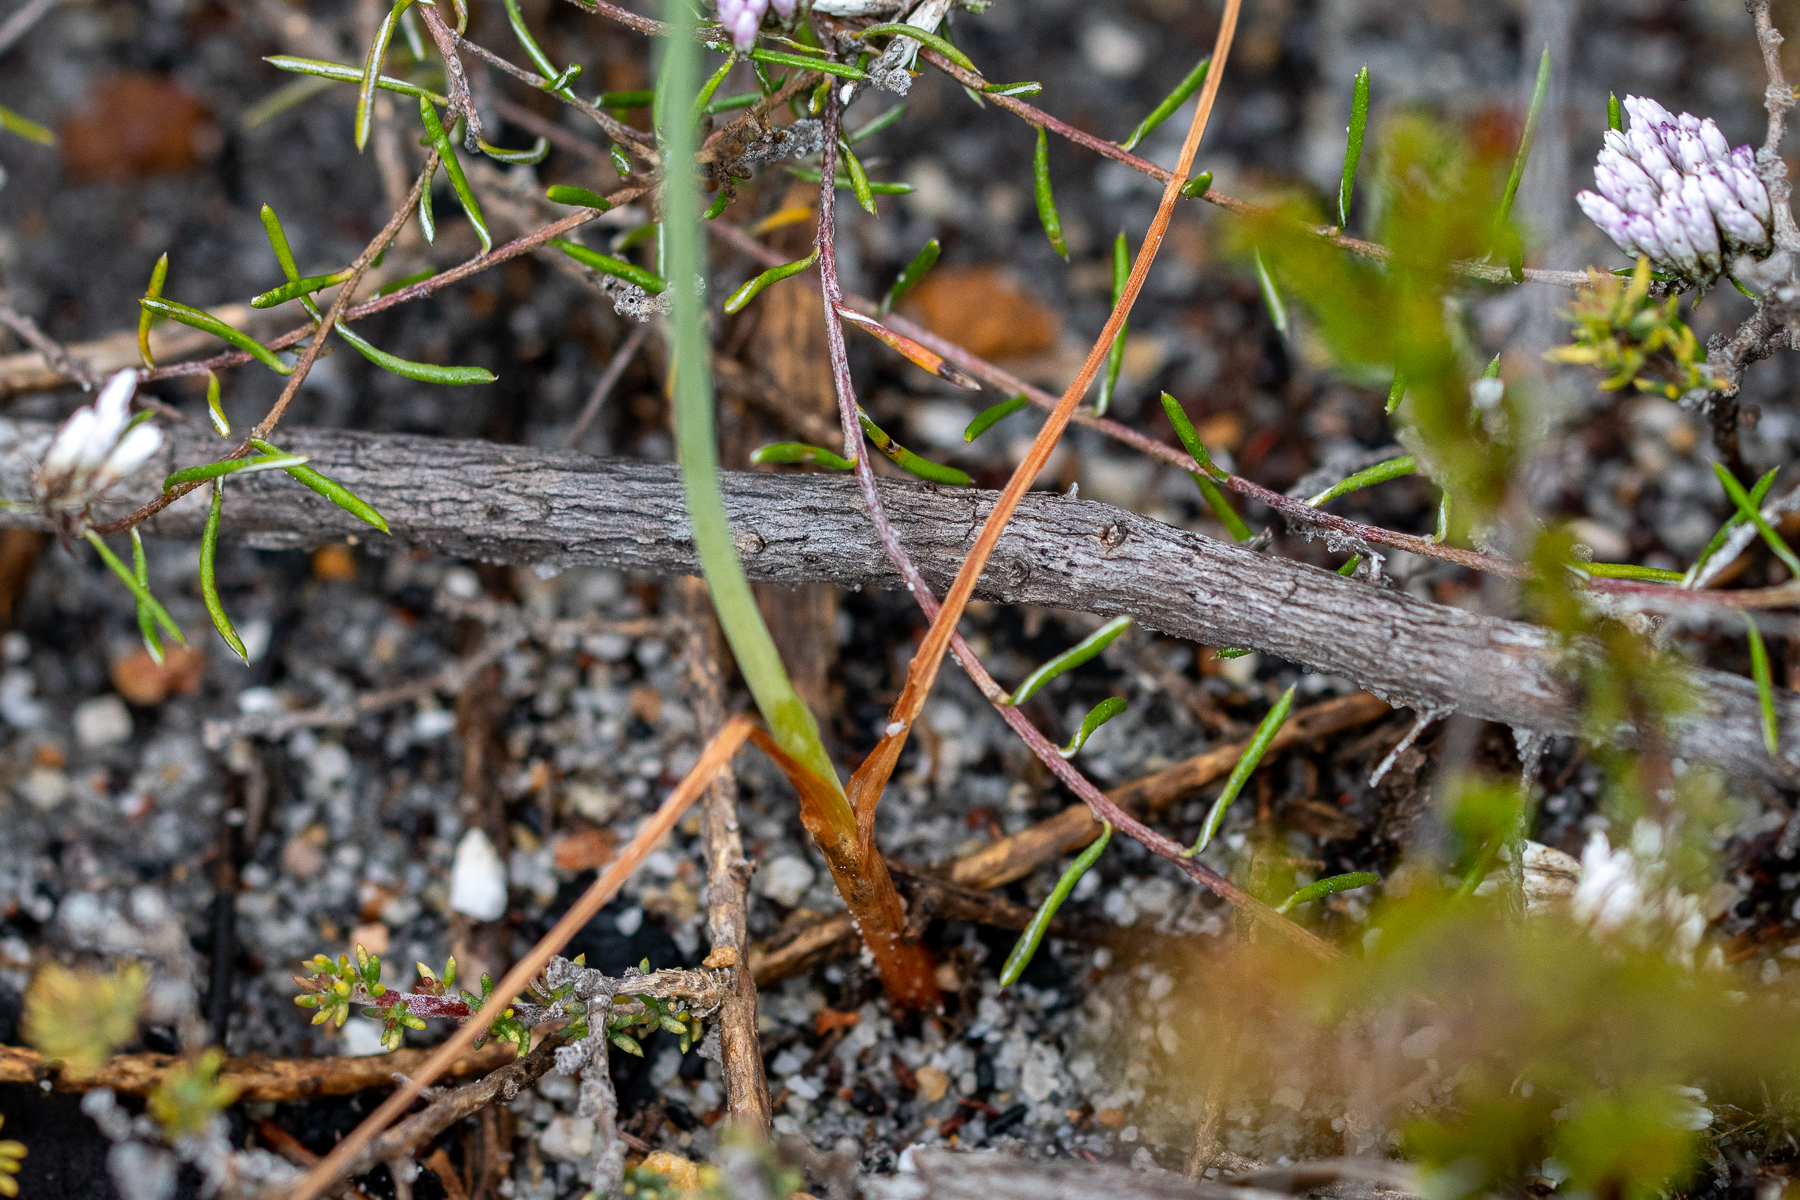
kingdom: Plantae
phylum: Tracheophyta
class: Liliopsida
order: Asparagales
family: Asparagaceae
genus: Albuca
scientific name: Albuca cooperi
